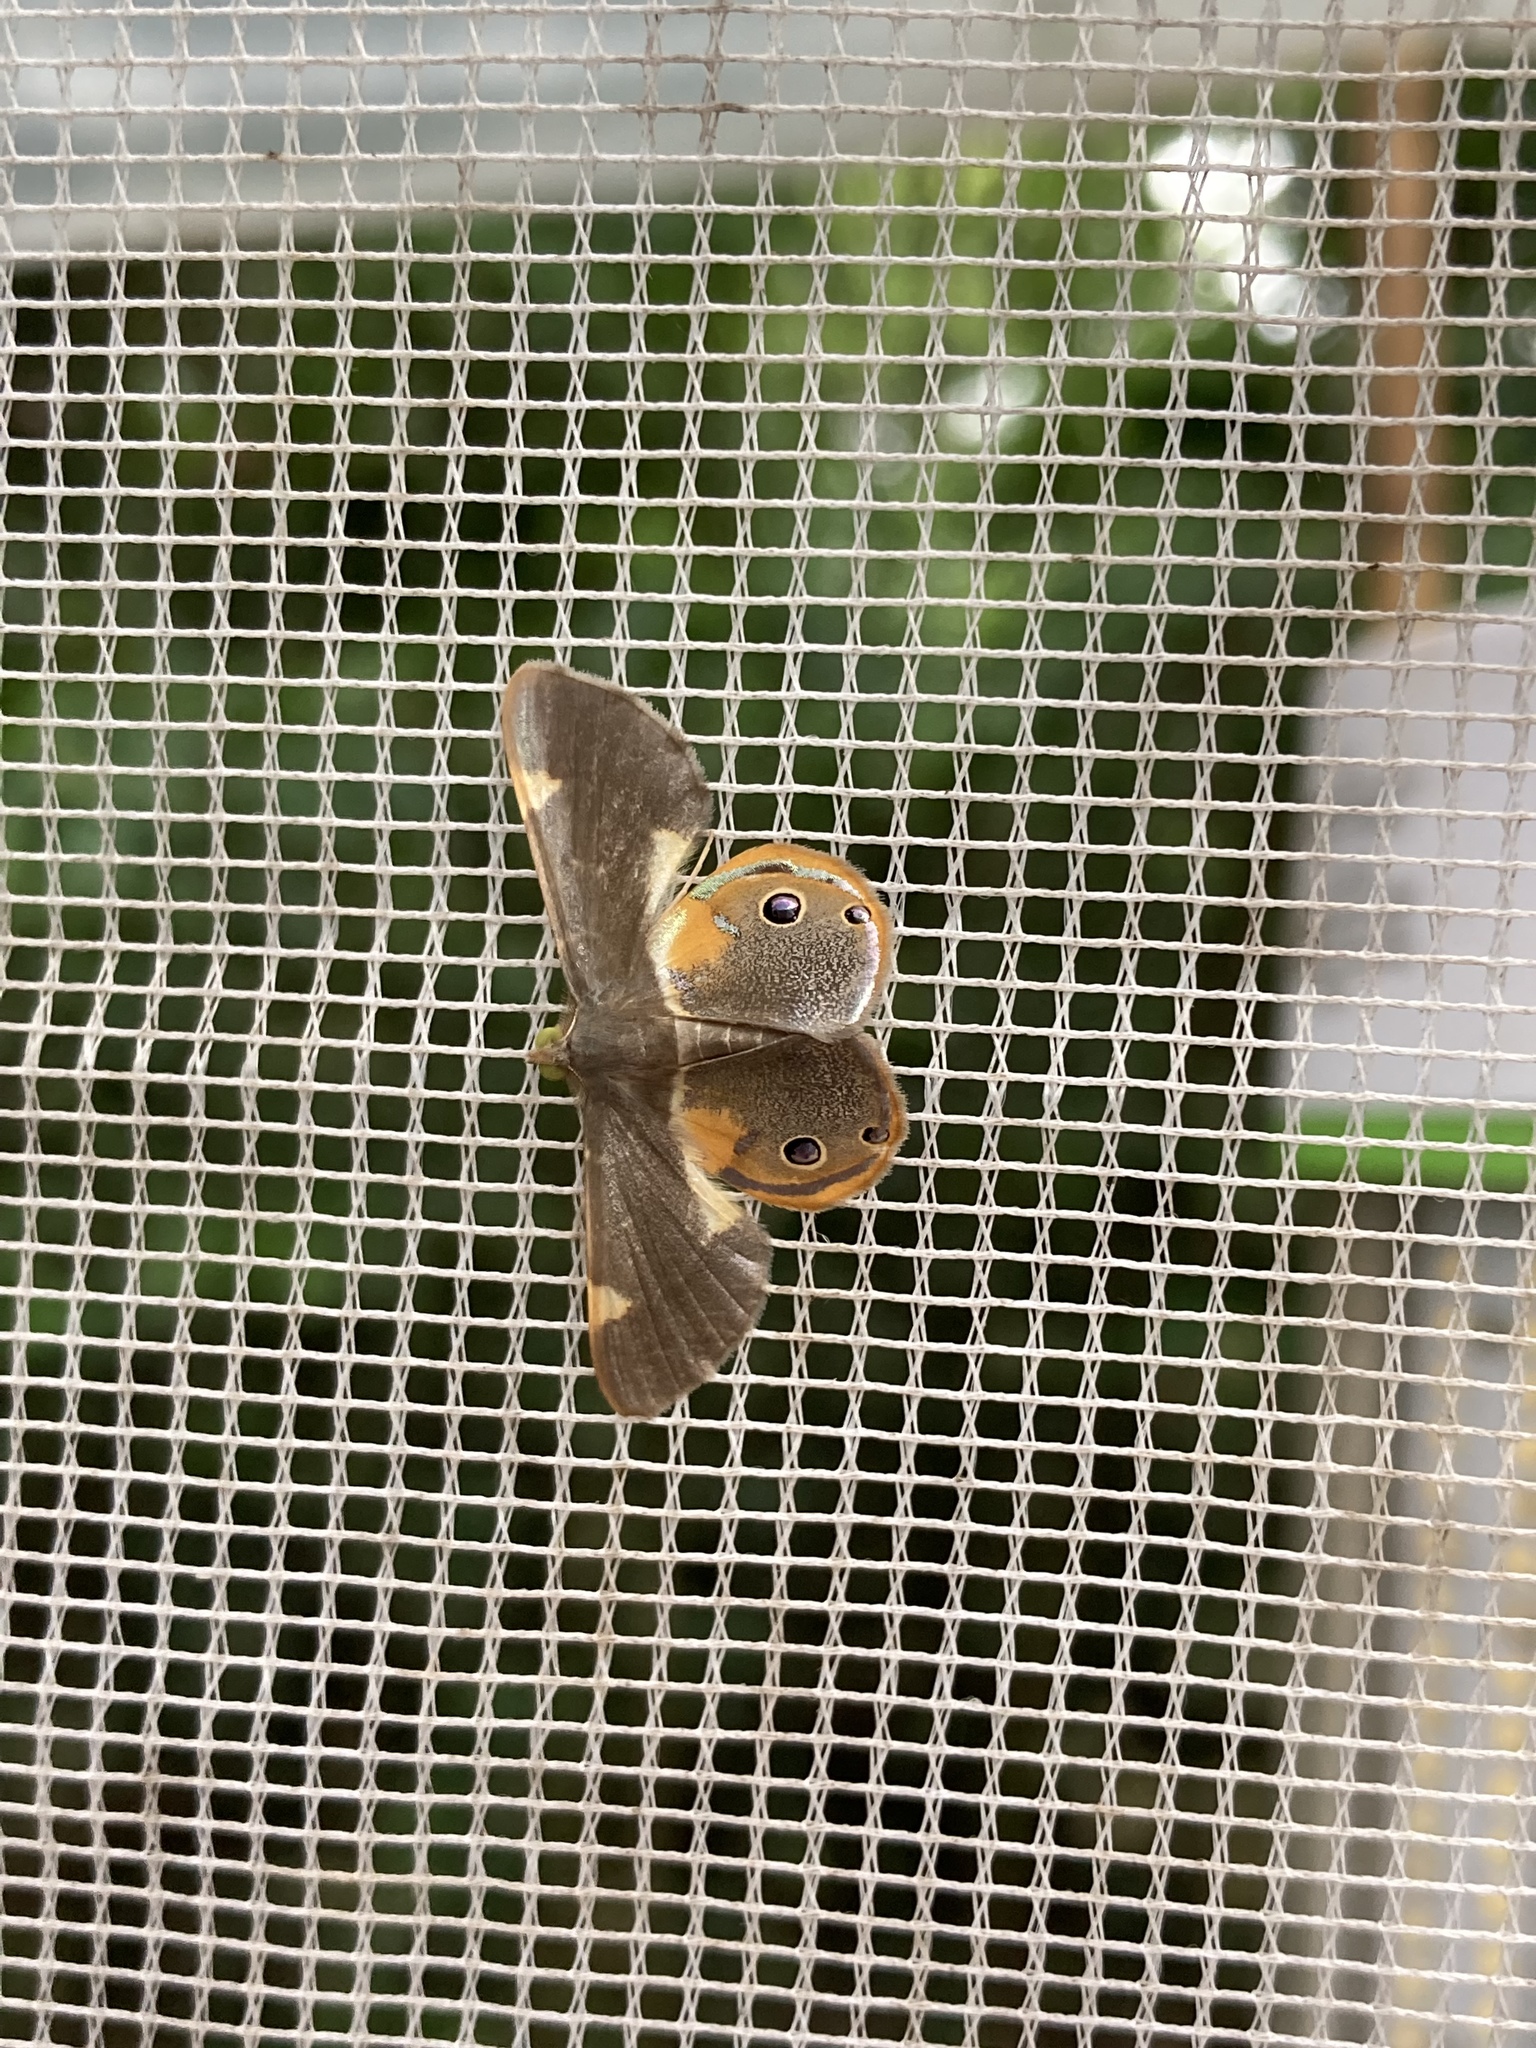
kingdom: Animalia
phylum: Arthropoda
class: Insecta
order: Lepidoptera
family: Geometridae
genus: Opisthoxia
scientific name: Opisthoxia haemon
